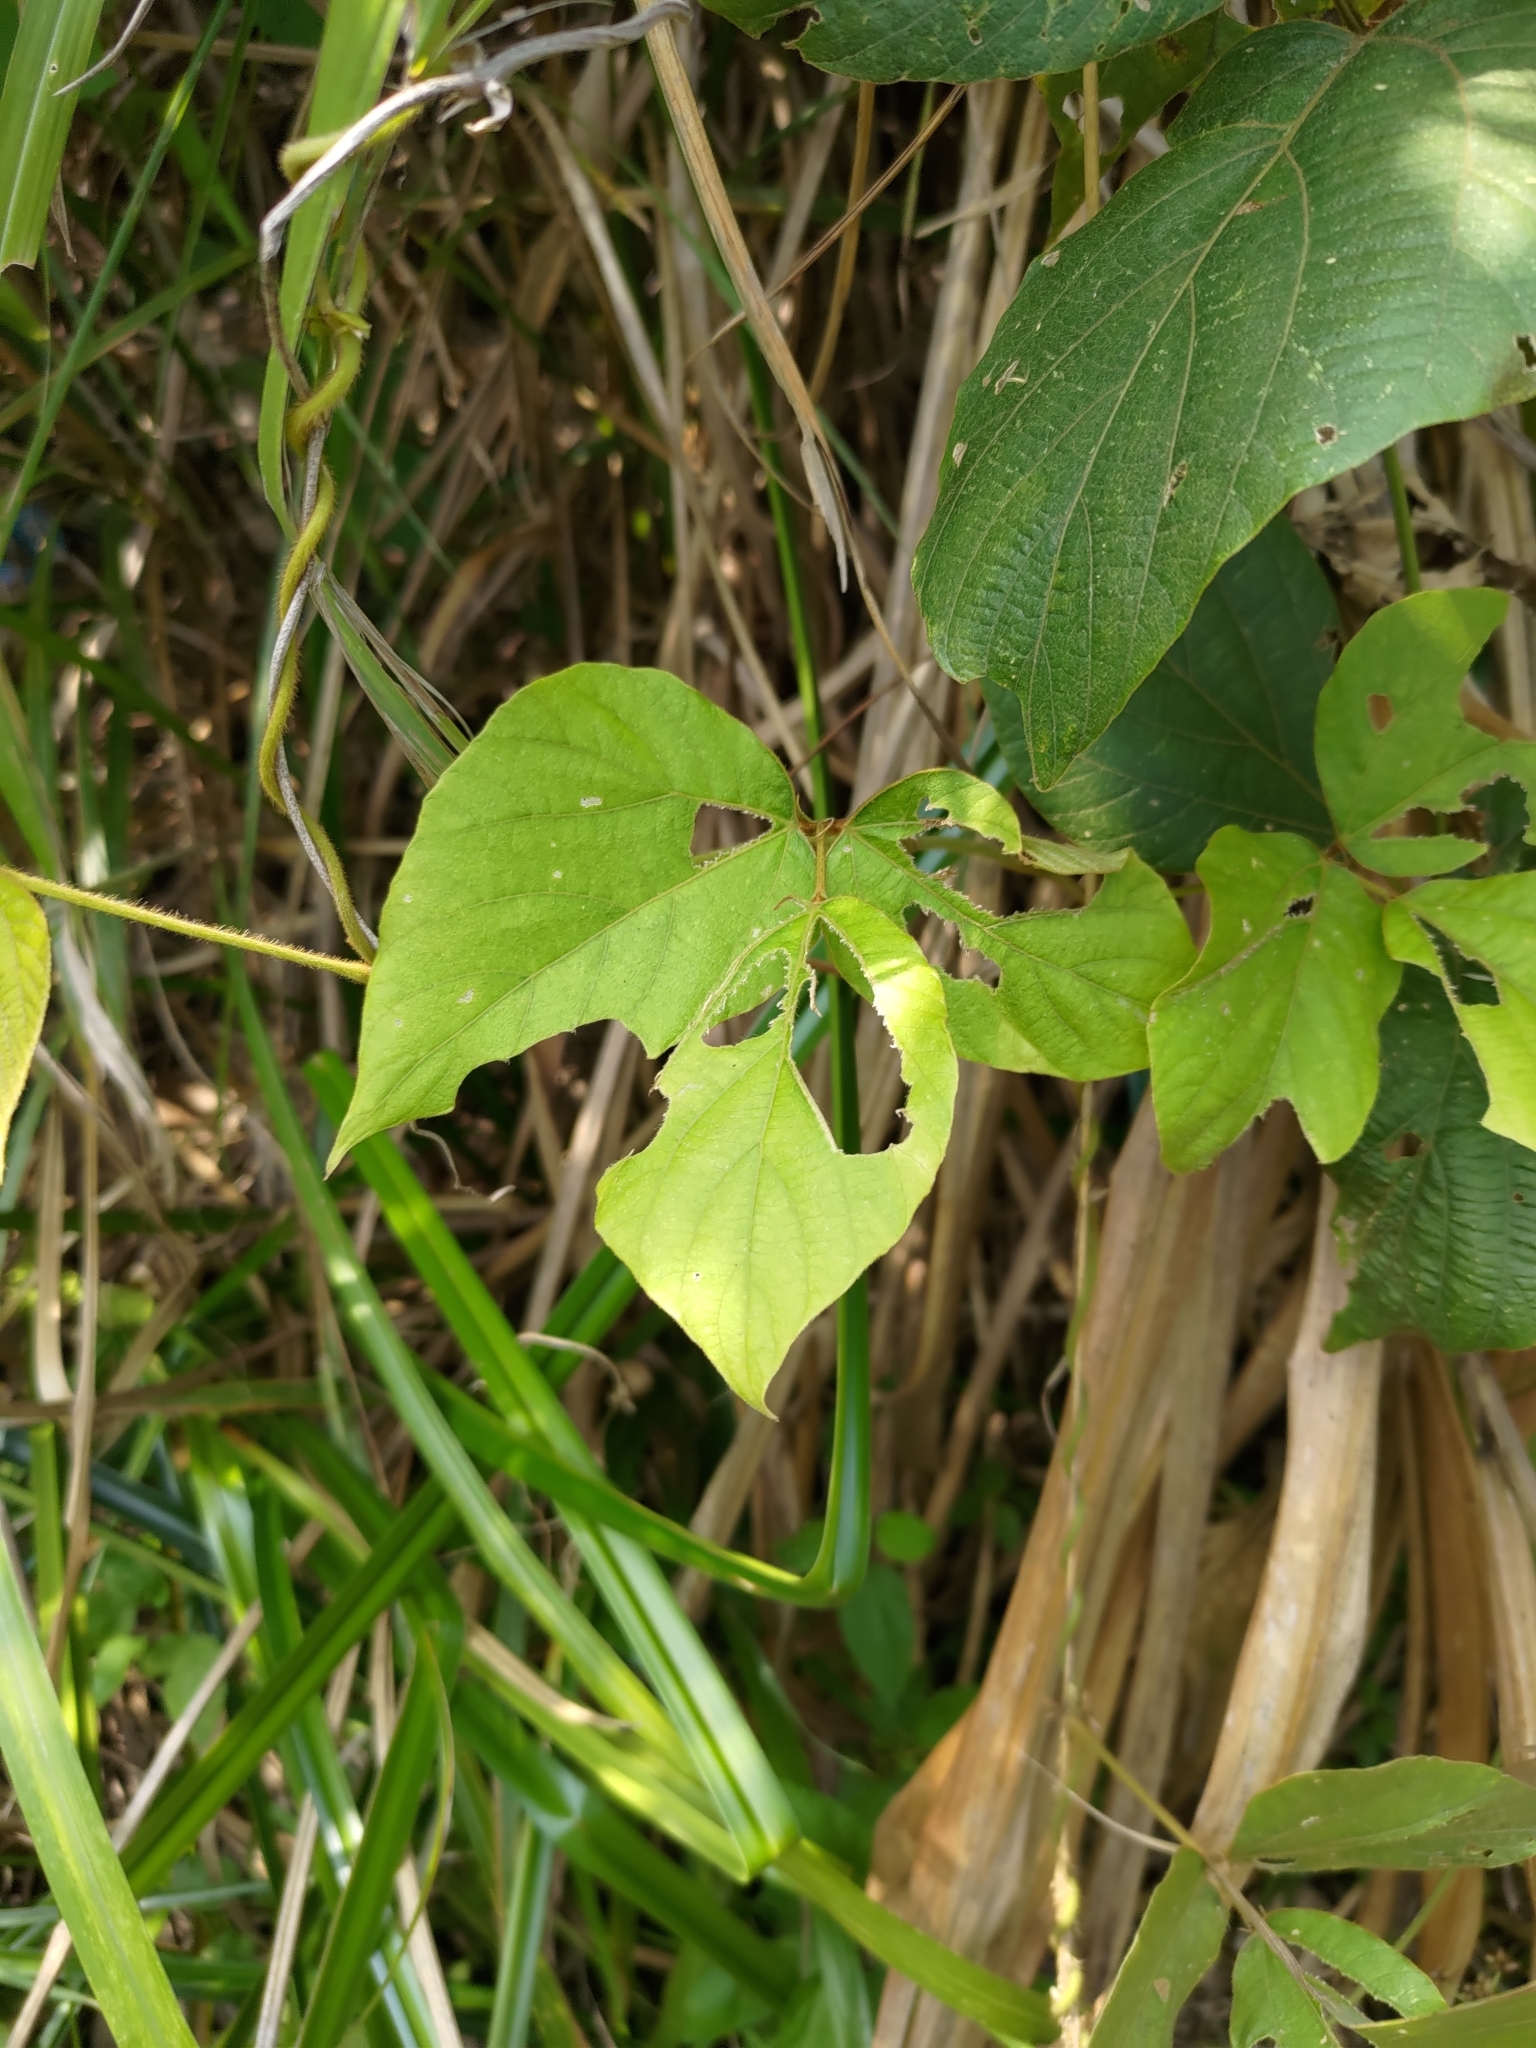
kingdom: Plantae
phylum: Tracheophyta
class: Magnoliopsida
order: Fabales
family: Fabaceae
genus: Pueraria
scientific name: Pueraria montana
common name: Kudzu
